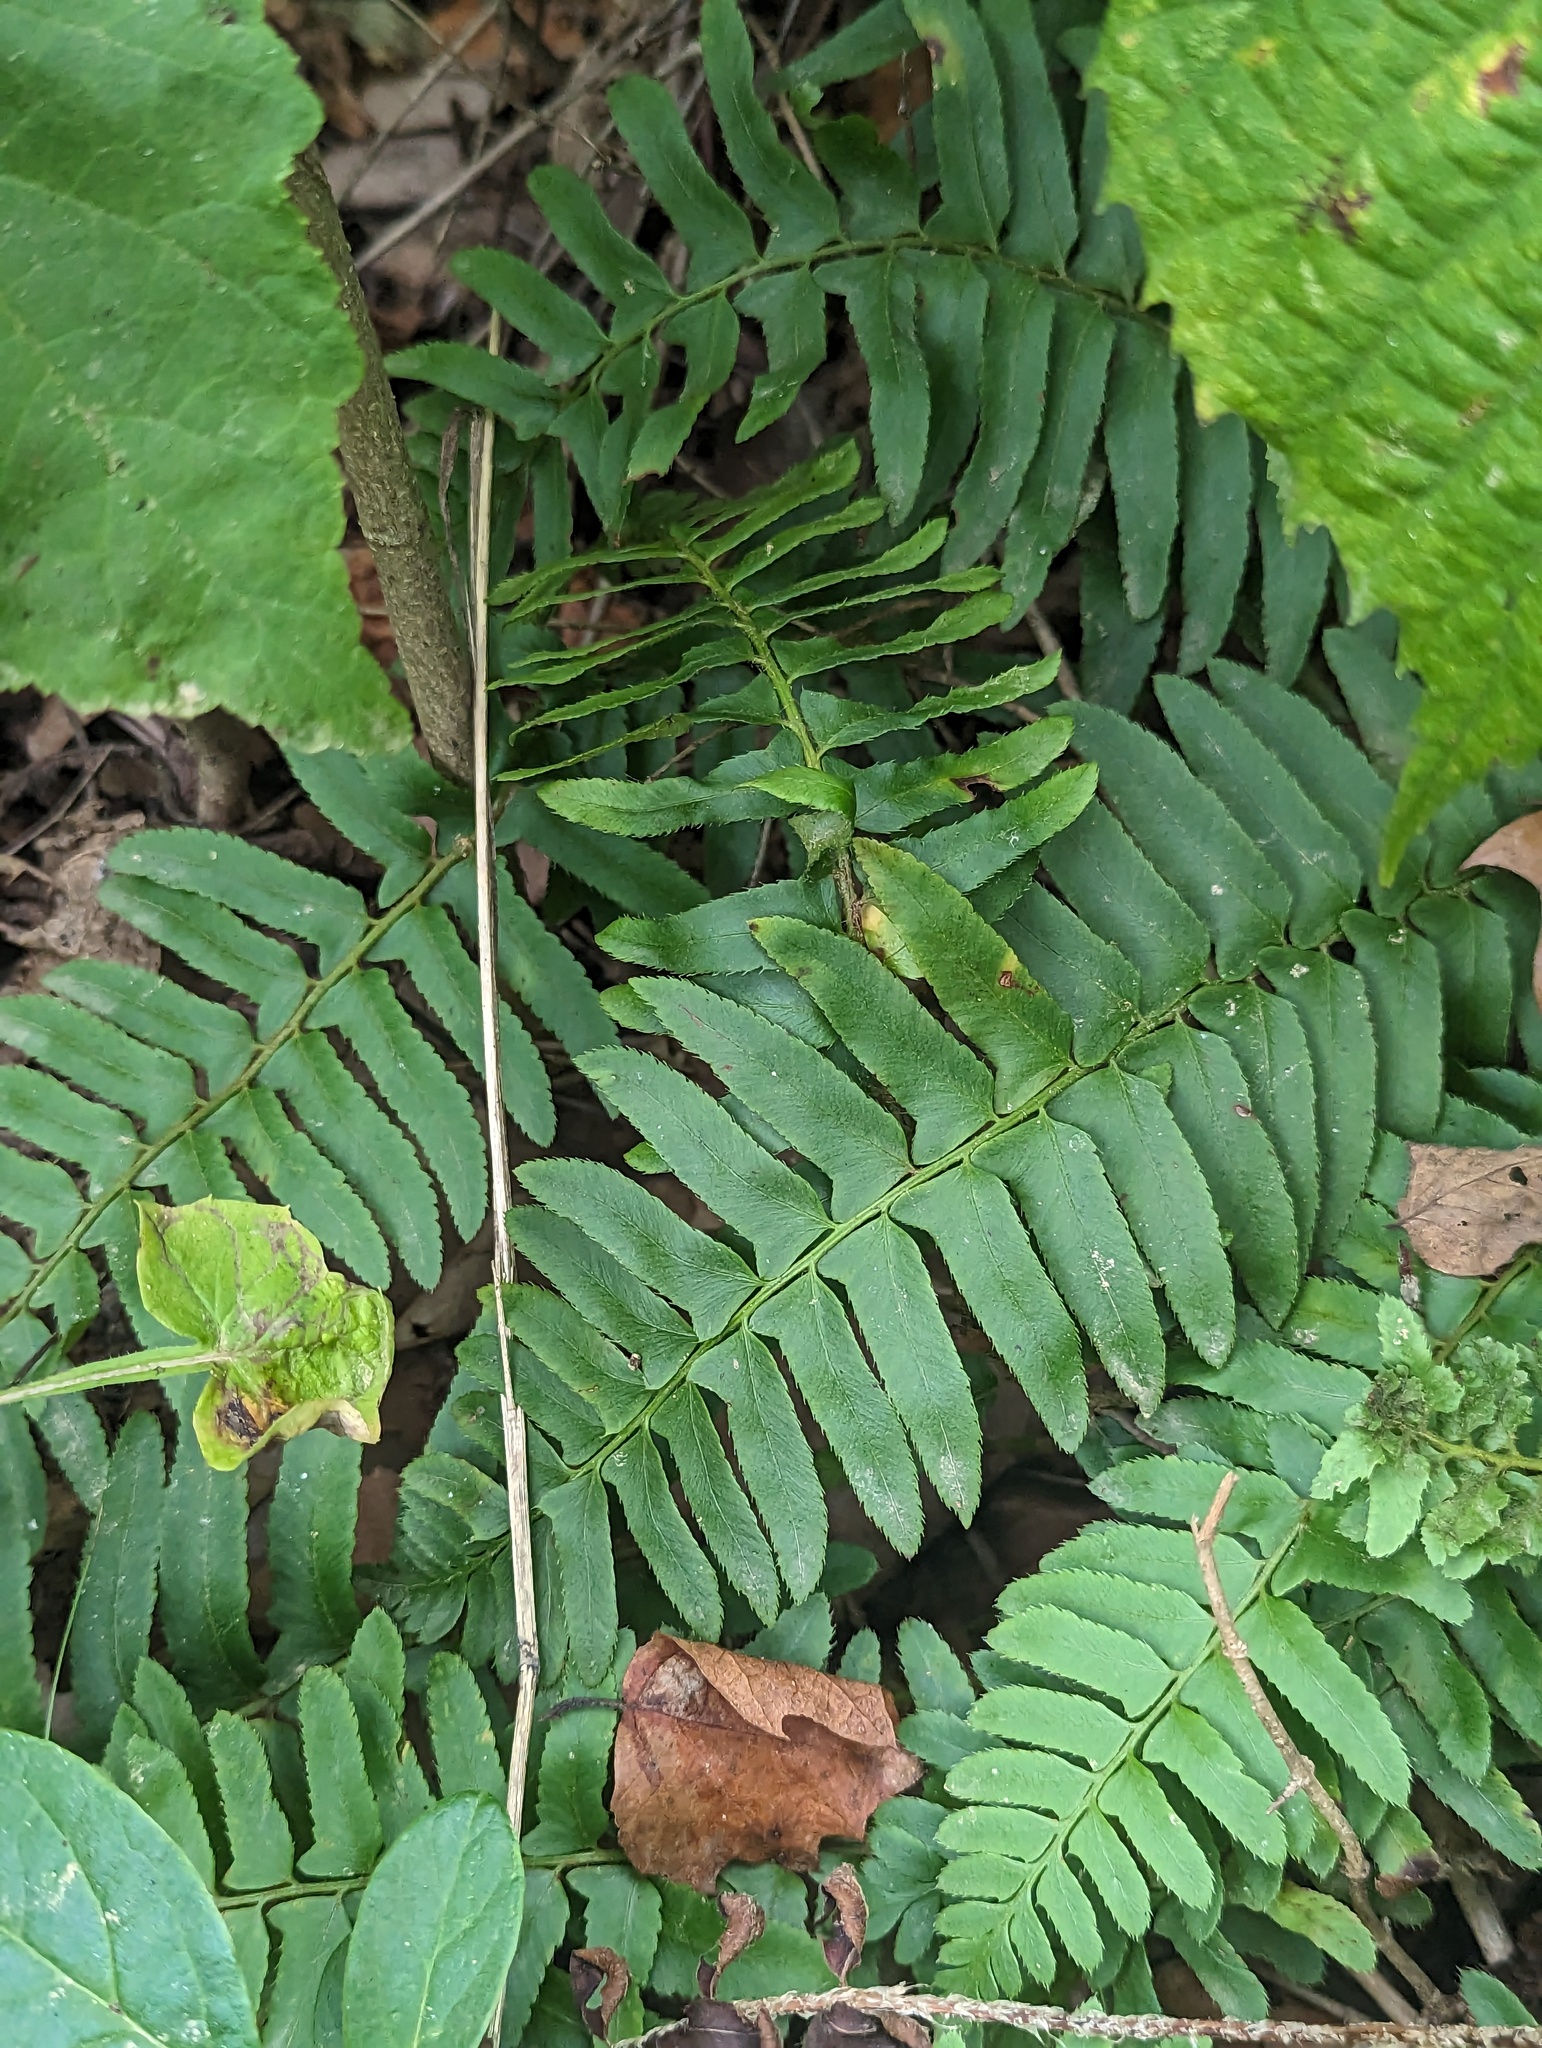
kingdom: Plantae
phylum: Tracheophyta
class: Polypodiopsida
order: Polypodiales
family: Dryopteridaceae
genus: Polystichum
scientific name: Polystichum acrostichoides
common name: Christmas fern
